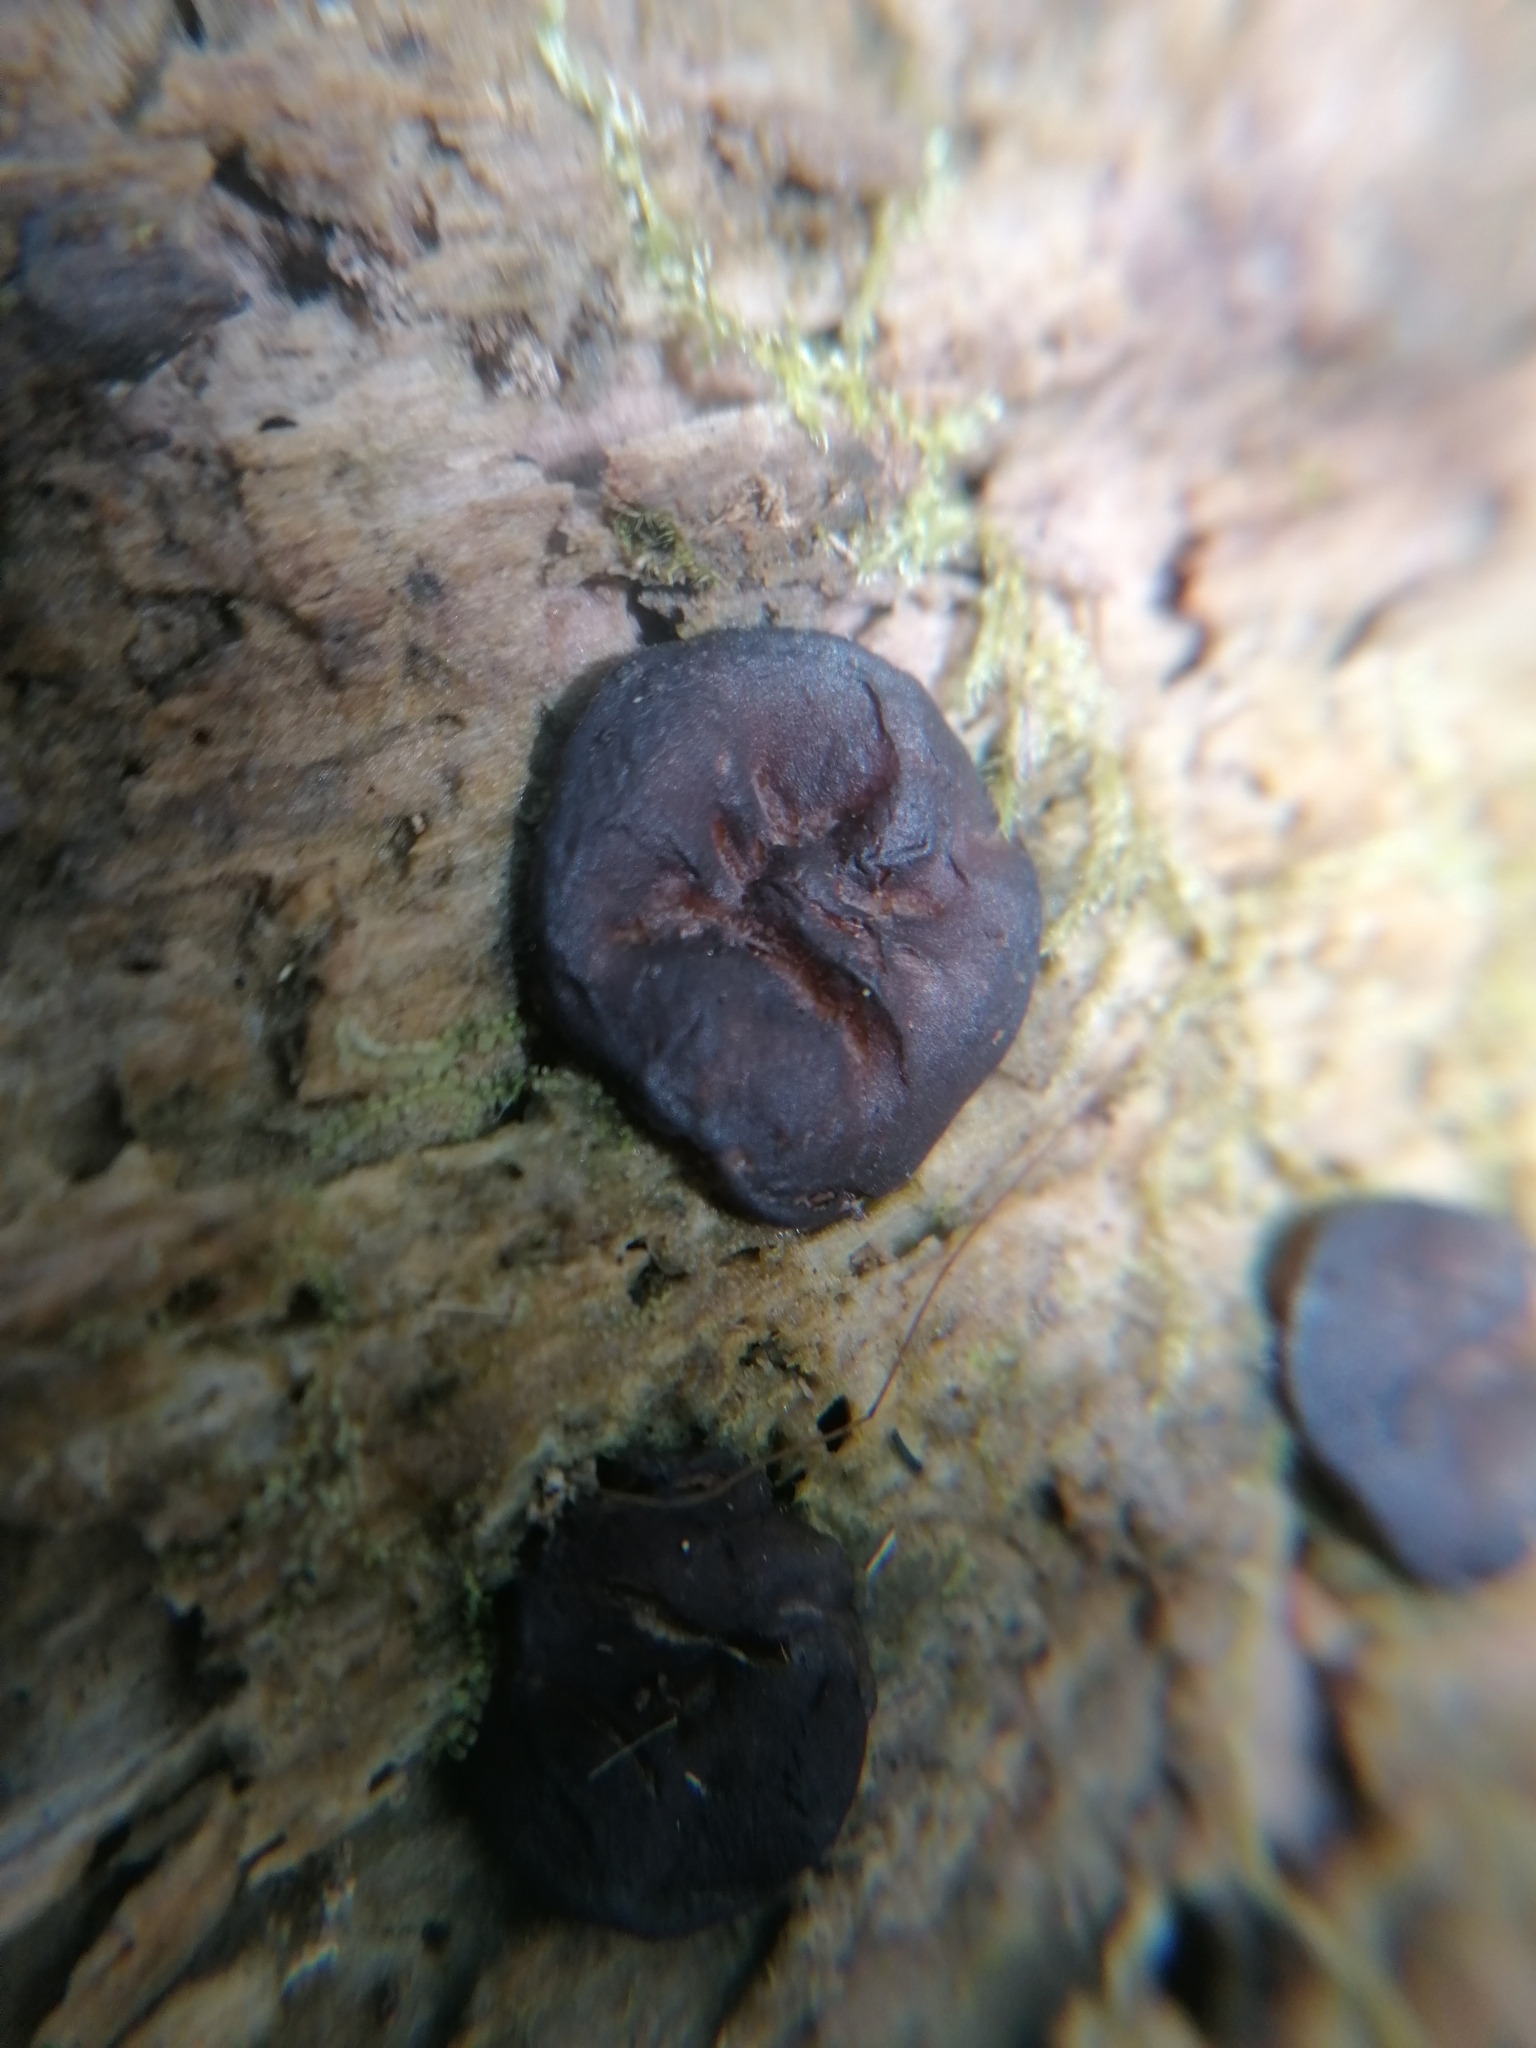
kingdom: Fungi
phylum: Ascomycota
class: Pezizomycetes
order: Pezizales
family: Pezizaceae
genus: Pachyella
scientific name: Pachyella clypeata
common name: Copper penny fungus
